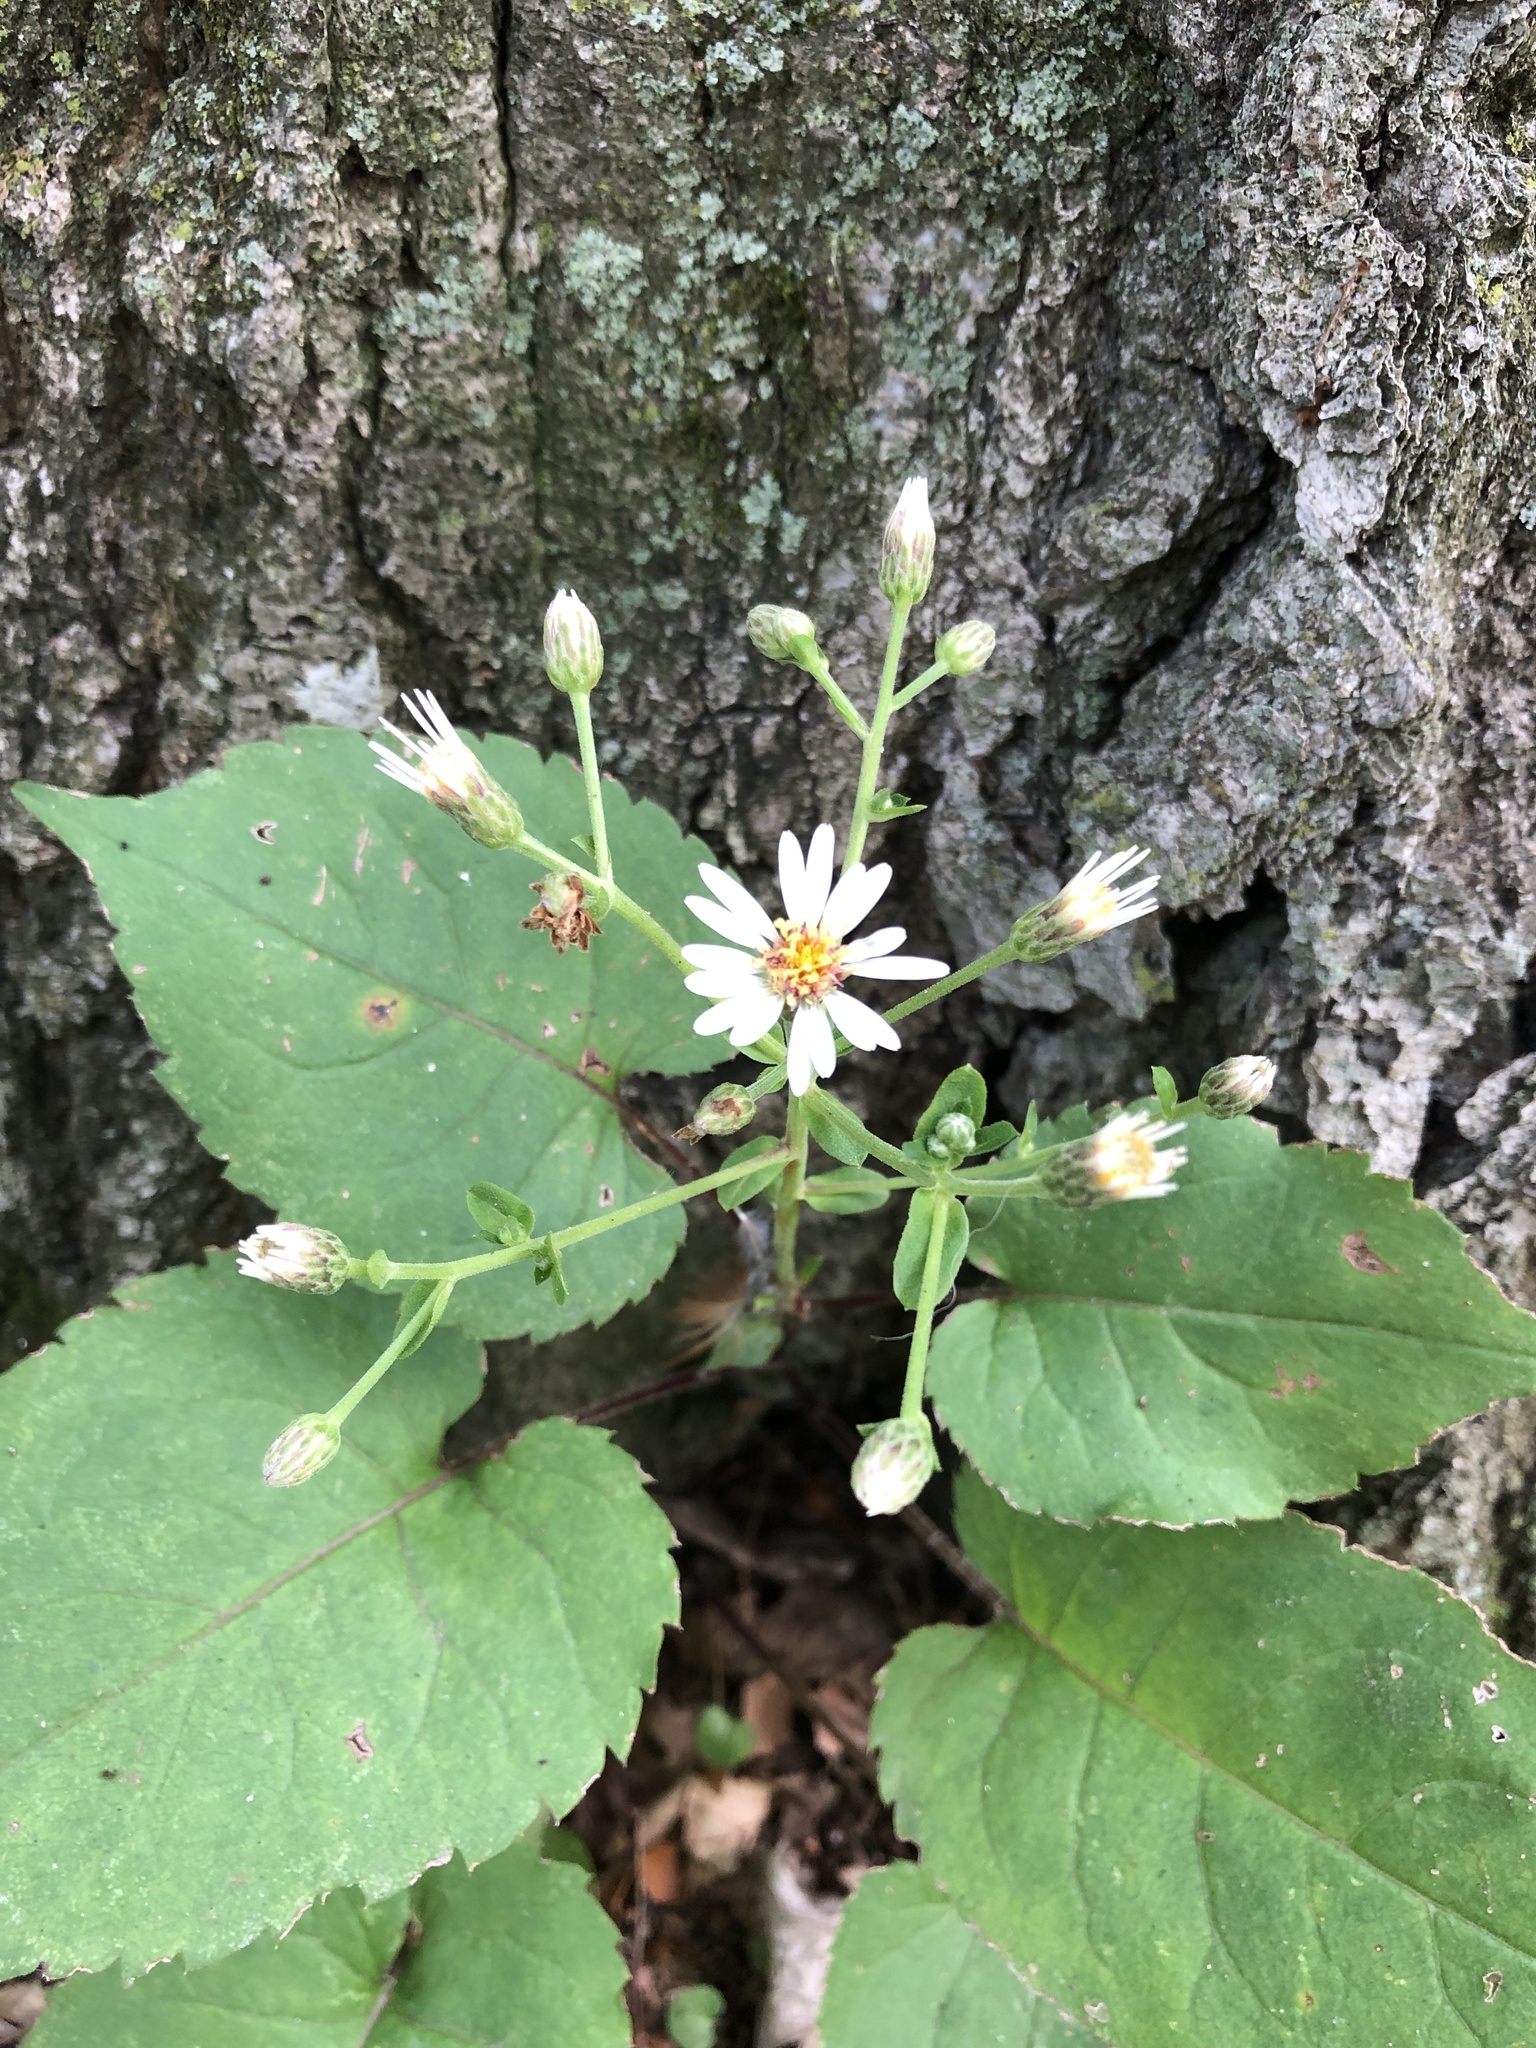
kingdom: Plantae
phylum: Tracheophyta
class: Magnoliopsida
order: Asterales
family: Asteraceae
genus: Eurybia
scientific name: Eurybia macrophylla
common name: Big-leaved aster
